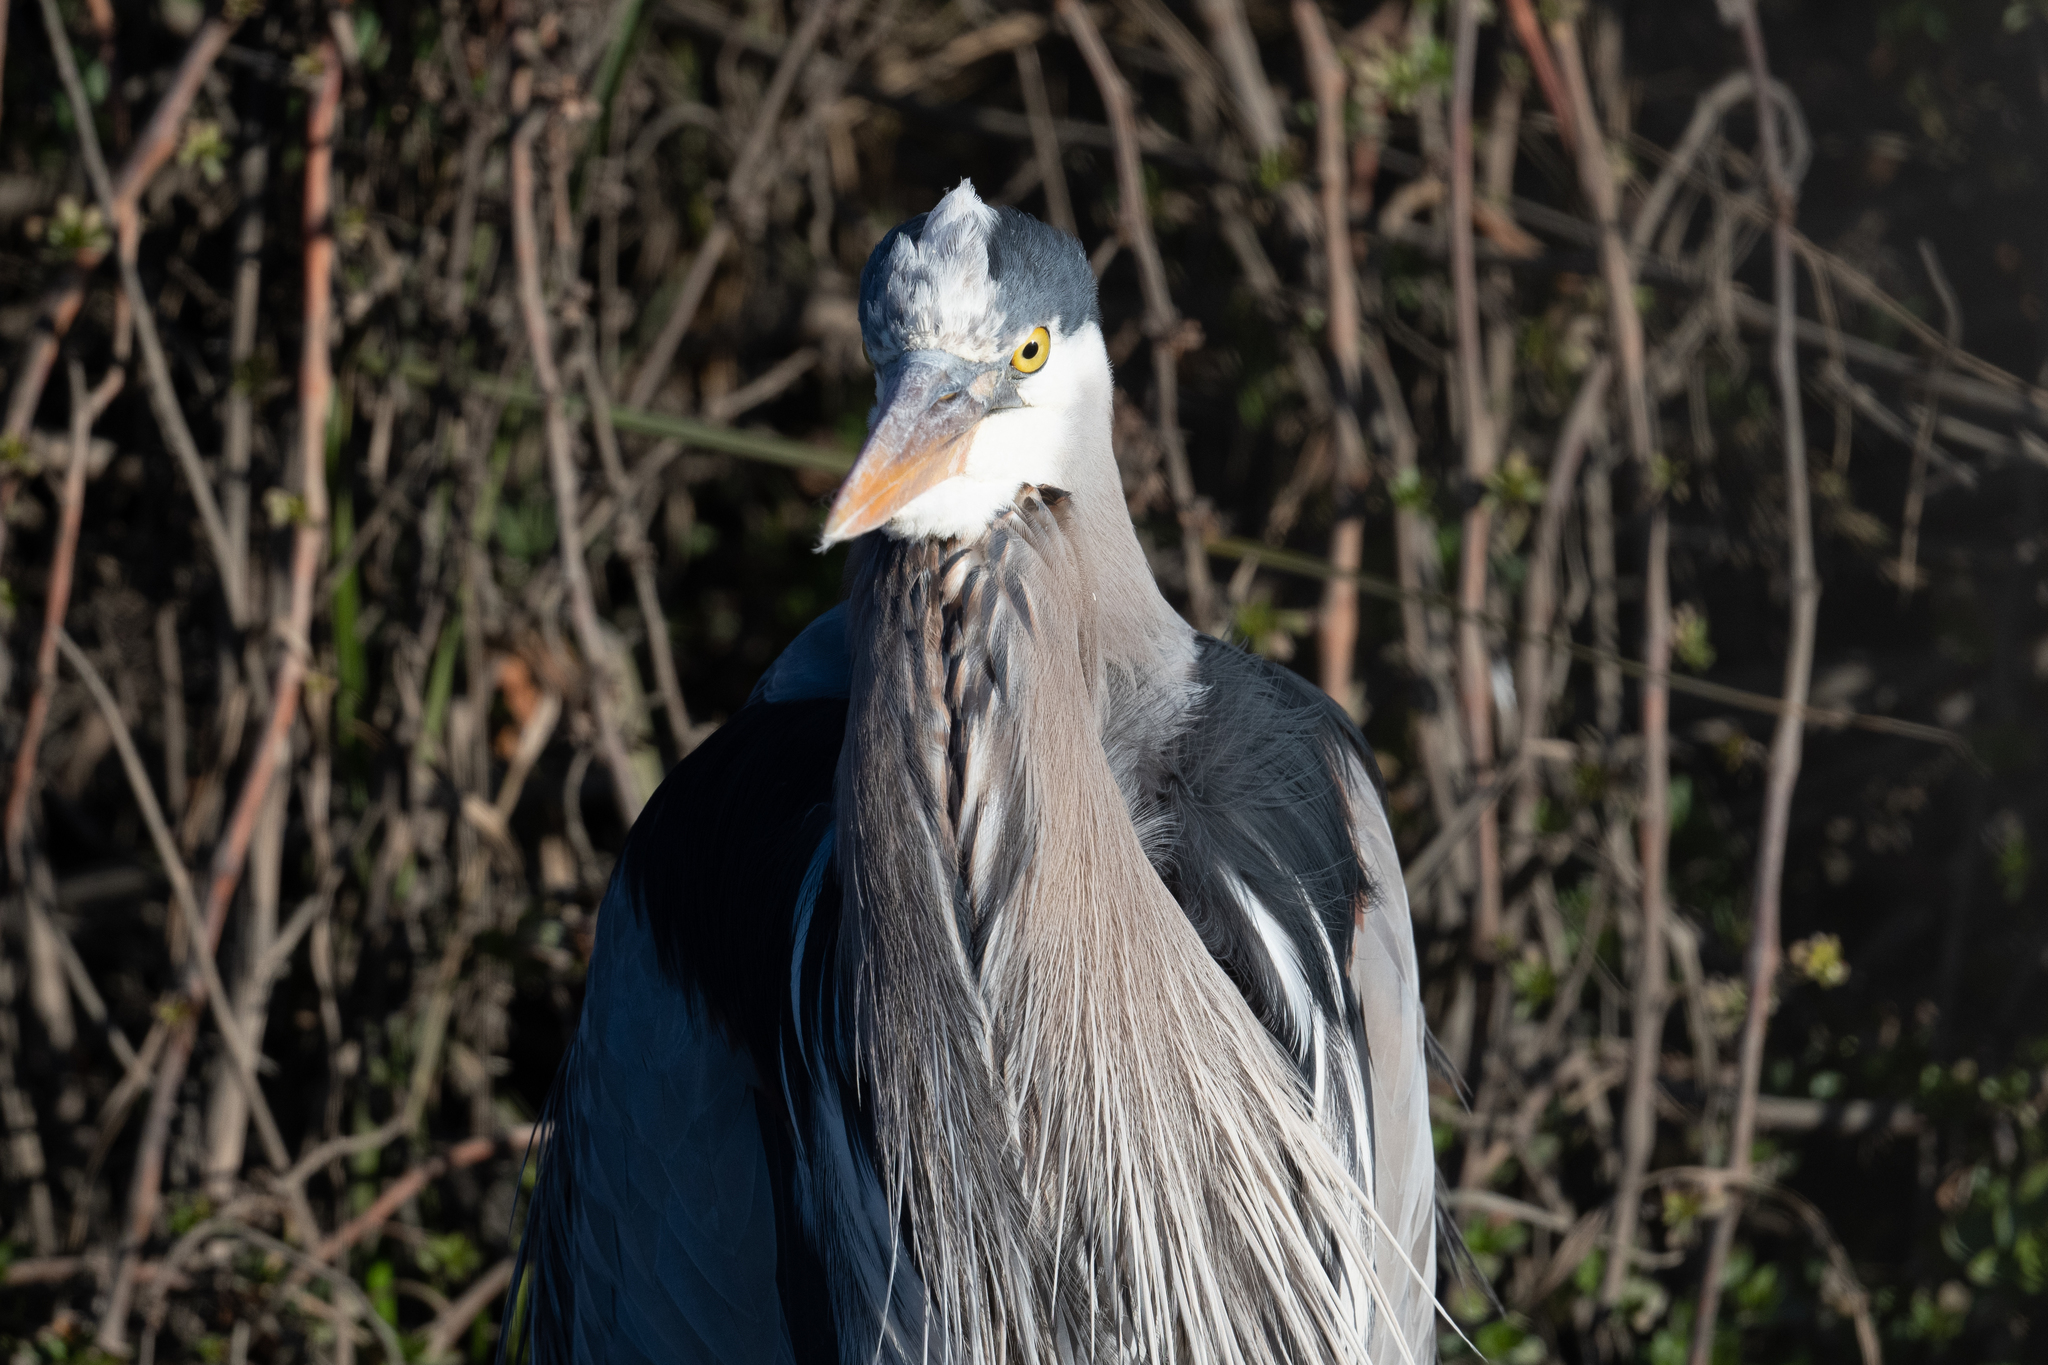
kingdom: Animalia
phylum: Chordata
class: Aves
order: Pelecaniformes
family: Ardeidae
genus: Ardea
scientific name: Ardea herodias
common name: Great blue heron
